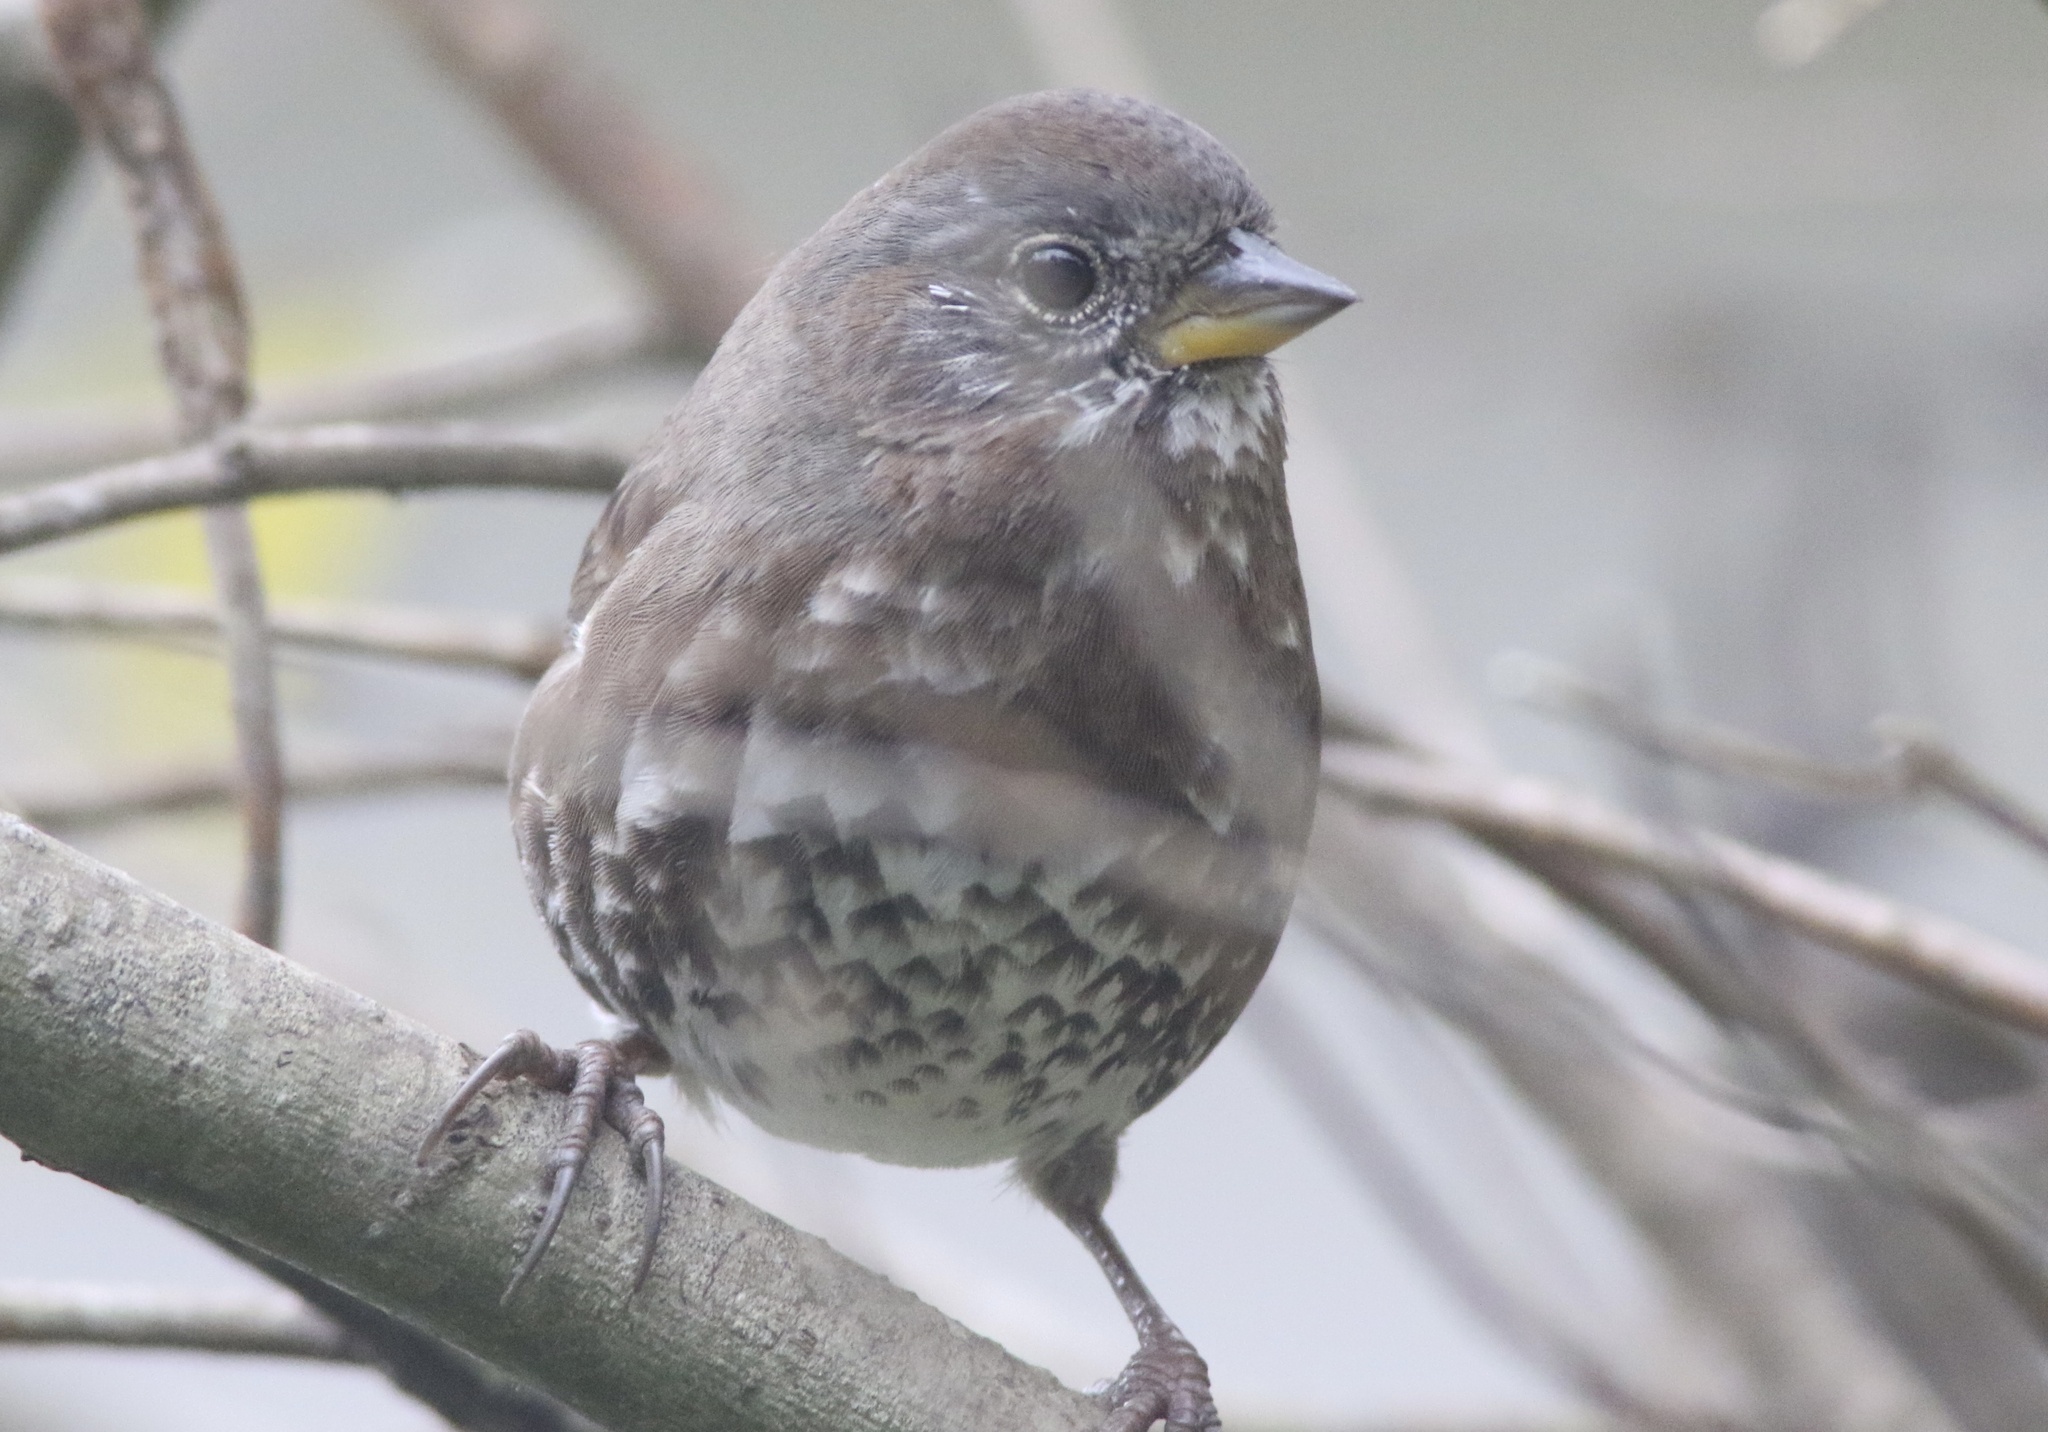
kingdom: Animalia
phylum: Chordata
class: Aves
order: Passeriformes
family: Passerellidae
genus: Passerella
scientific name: Passerella iliaca
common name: Fox sparrow
